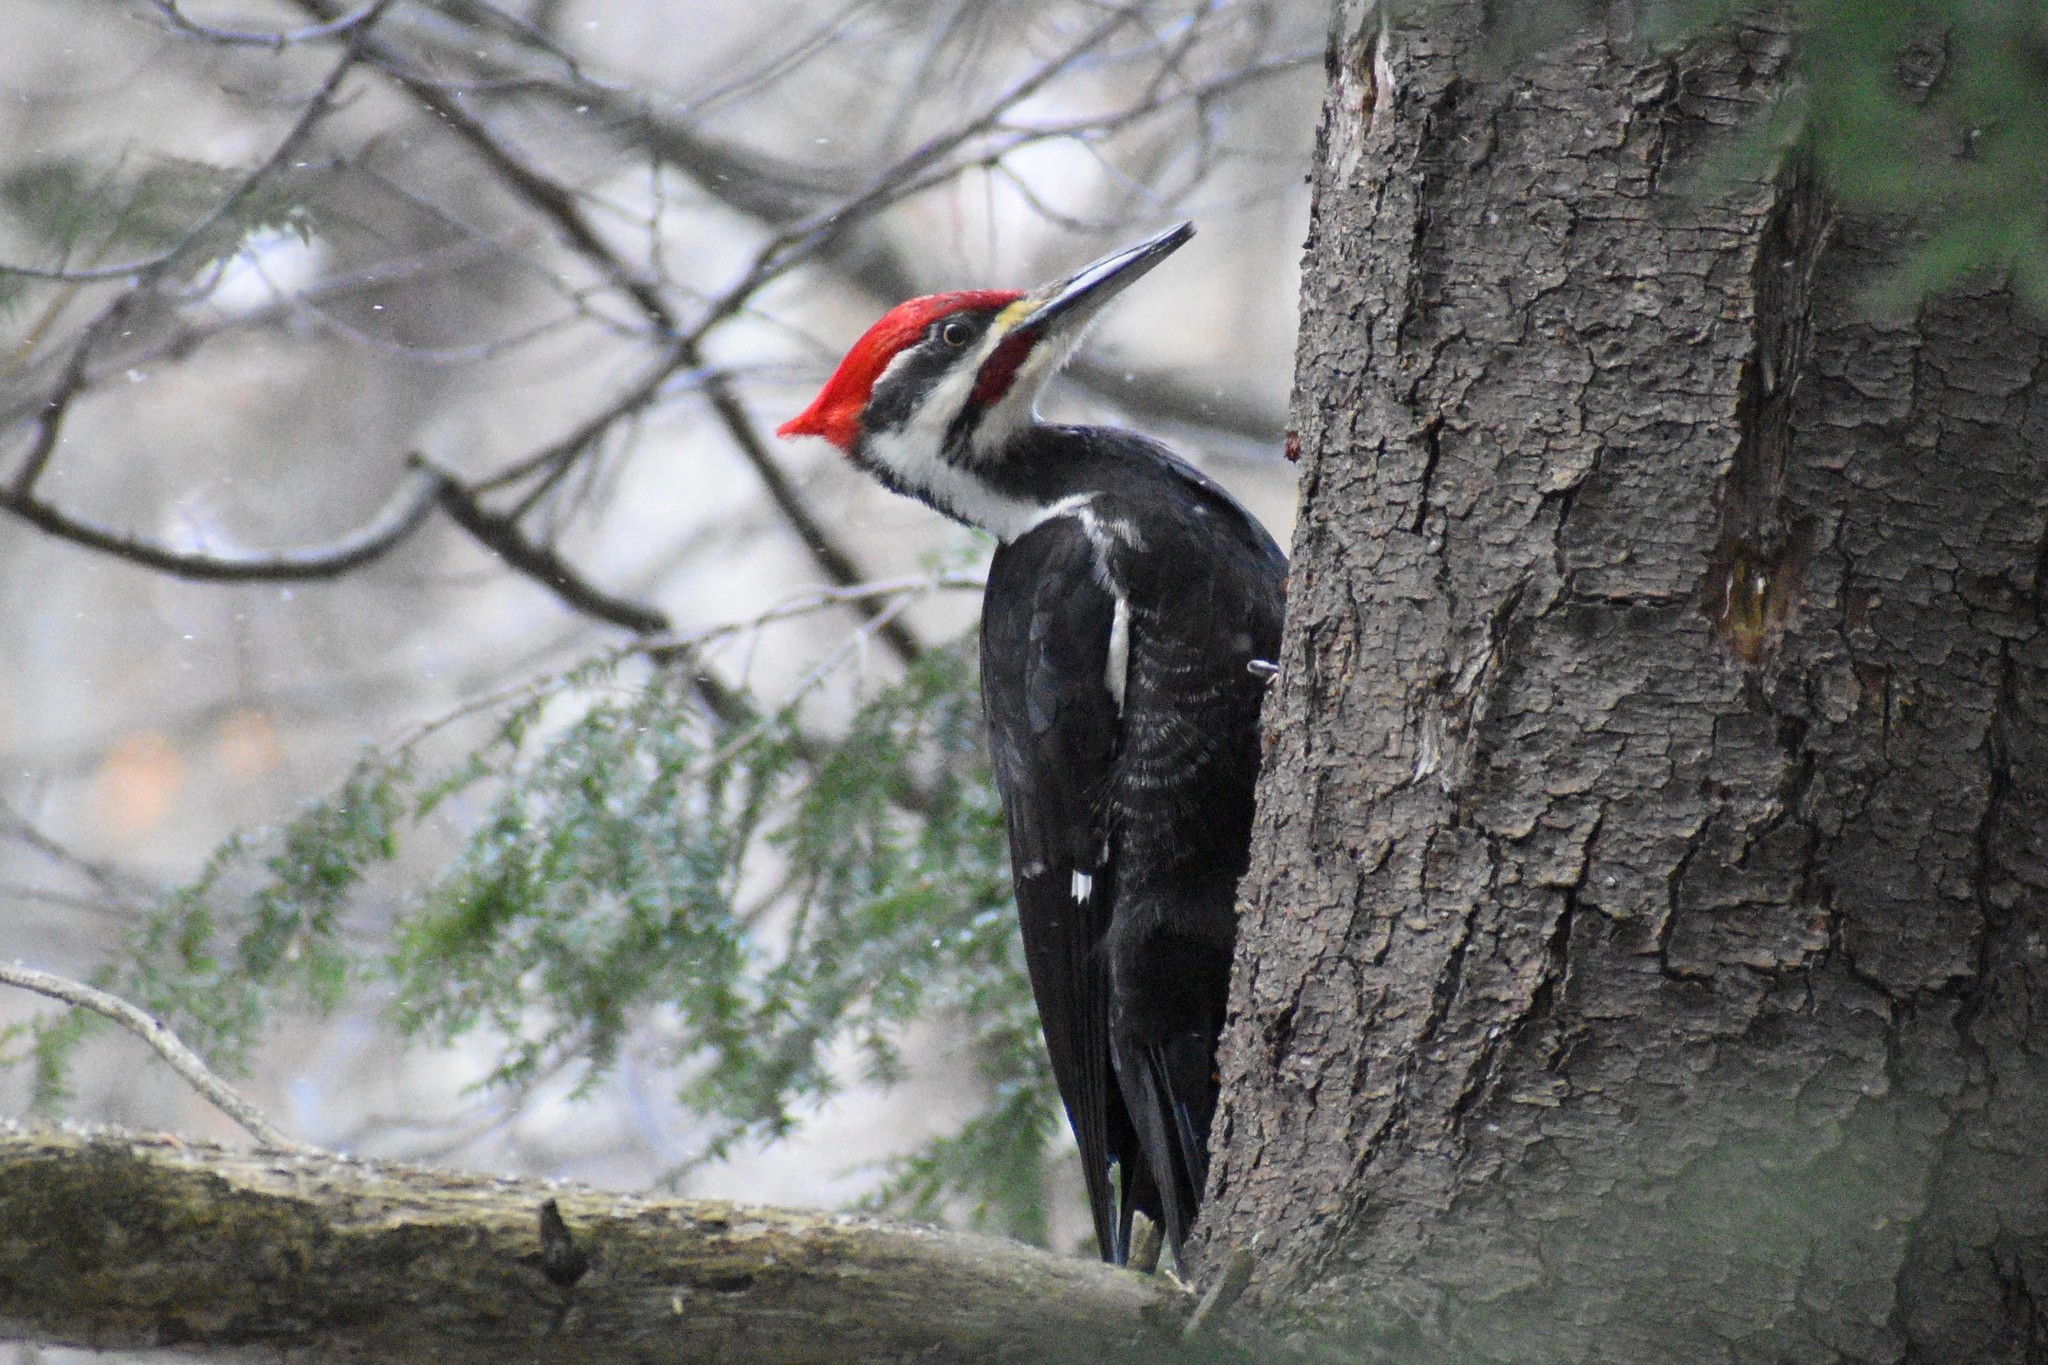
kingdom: Animalia
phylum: Chordata
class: Aves
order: Piciformes
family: Picidae
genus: Dryocopus
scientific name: Dryocopus pileatus
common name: Pileated woodpecker
